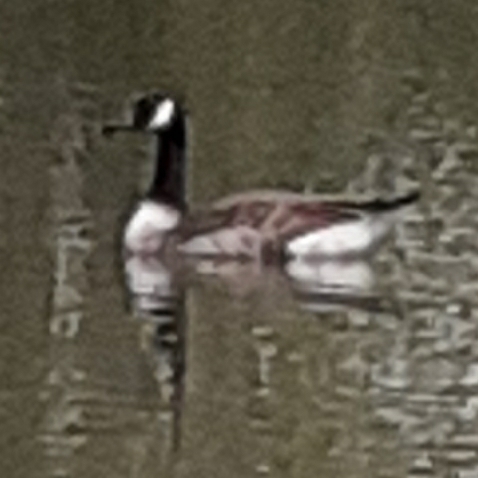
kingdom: Animalia
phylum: Chordata
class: Aves
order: Anseriformes
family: Anatidae
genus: Branta
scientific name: Branta canadensis
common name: Canada goose
